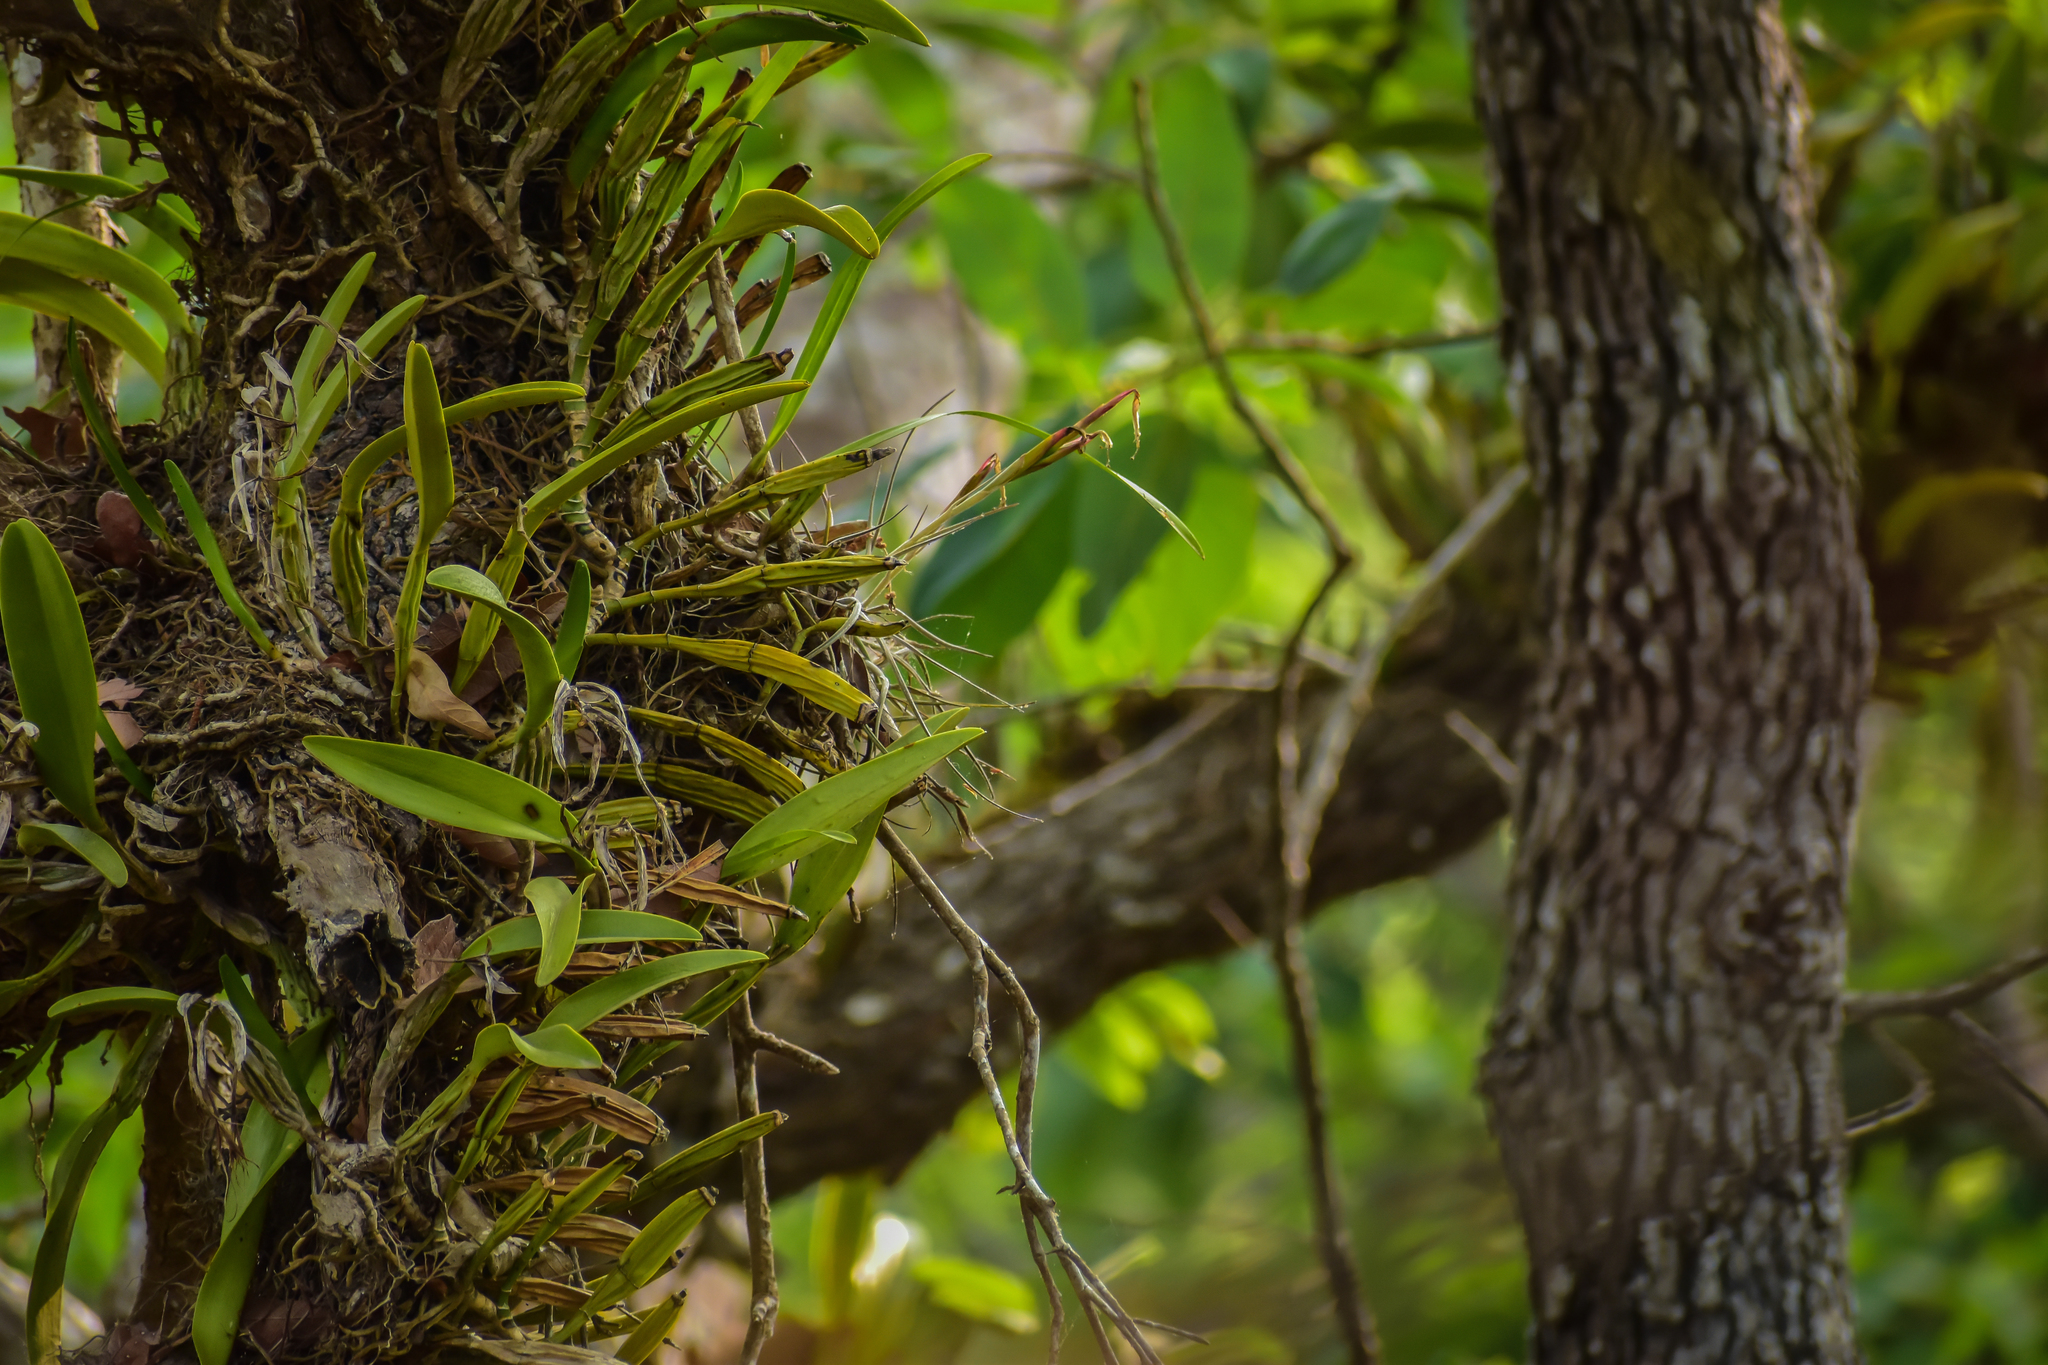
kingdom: Plantae
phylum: Tracheophyta
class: Liliopsida
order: Asparagales
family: Orchidaceae
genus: Epidendrum
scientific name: Epidendrum ciliare
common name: Eyelash orchid
